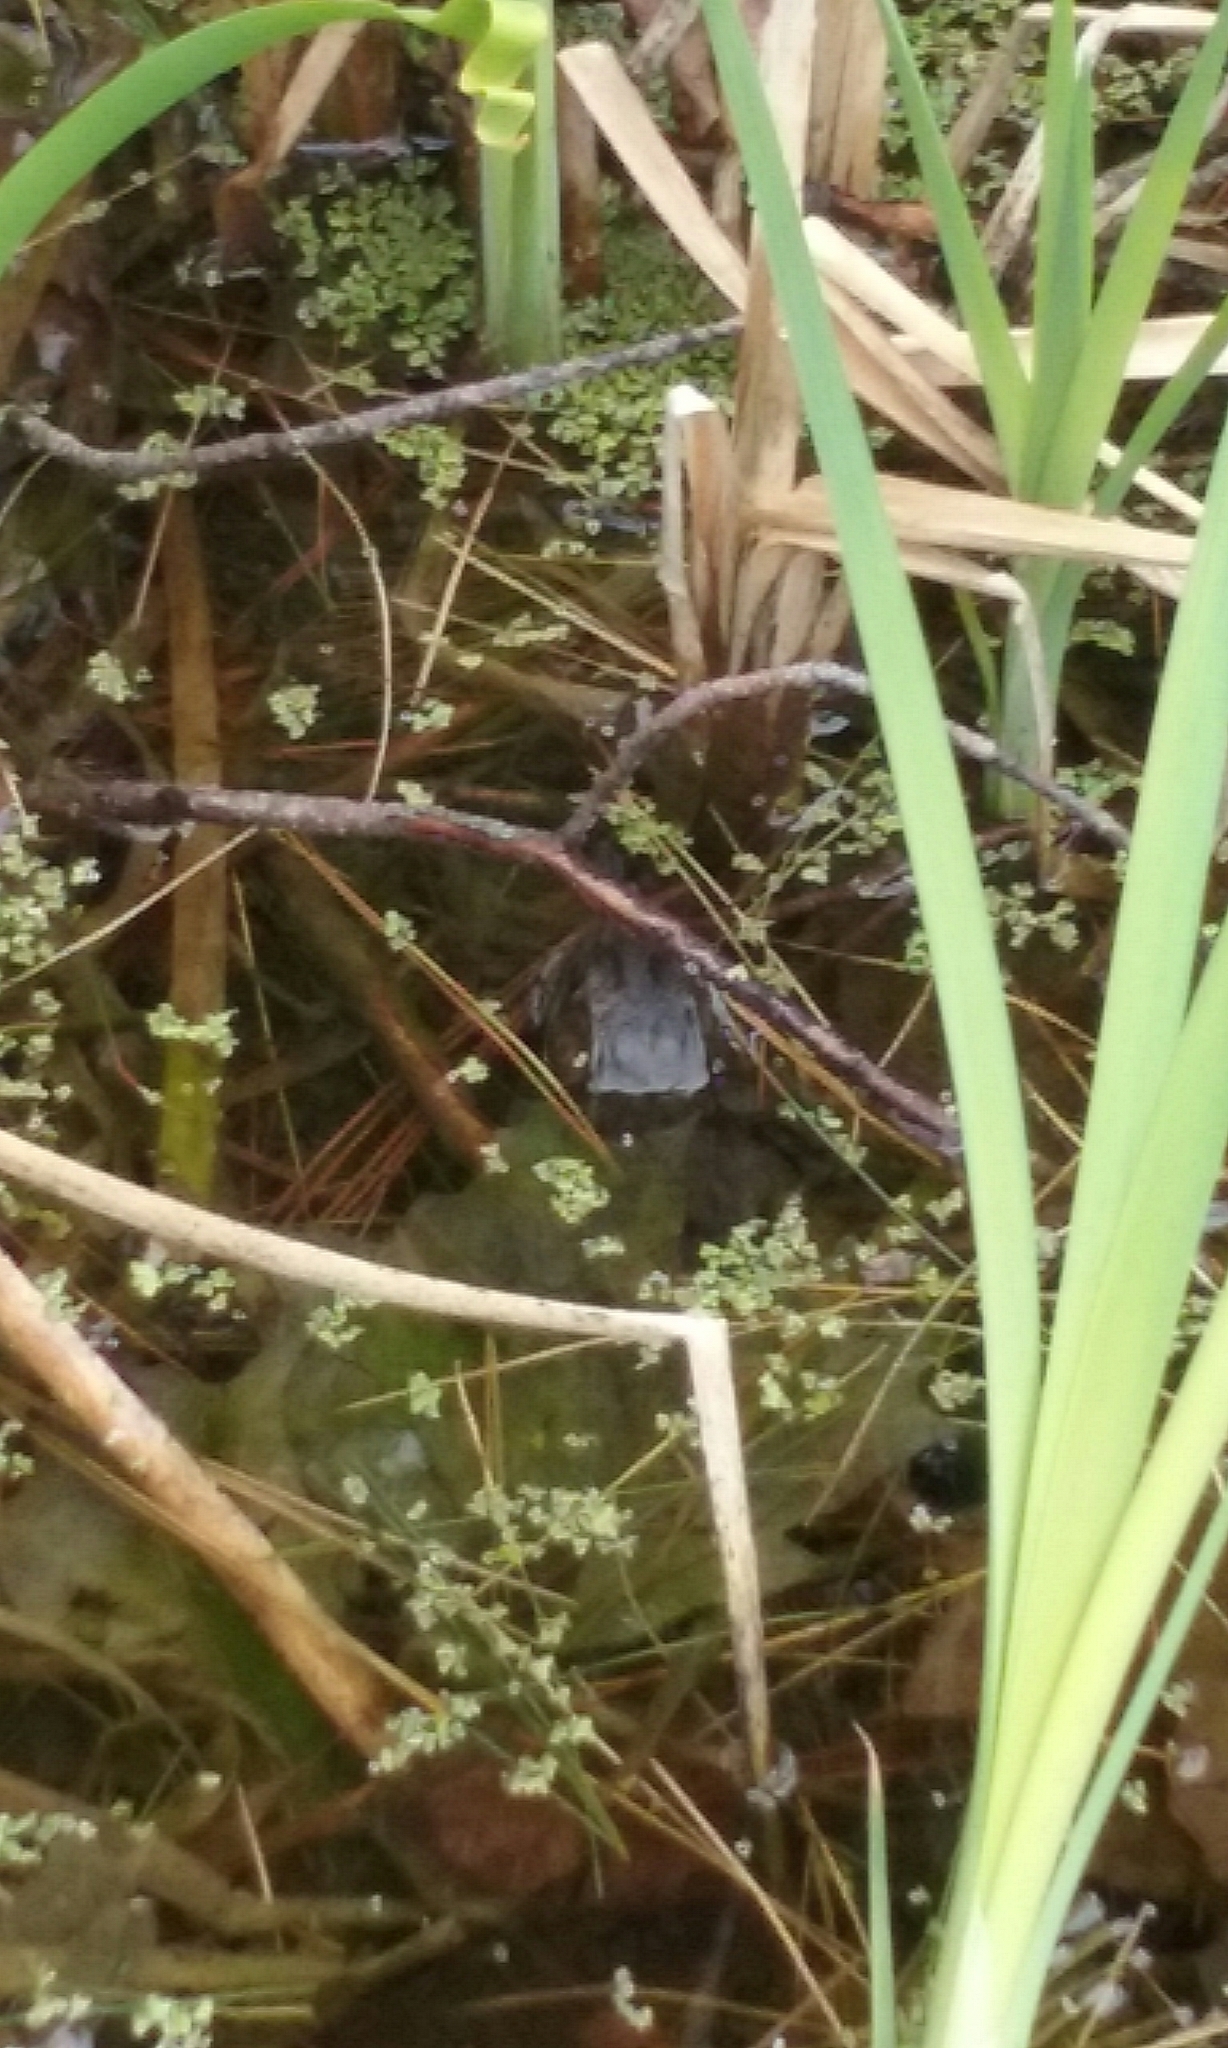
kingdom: Animalia
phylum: Chordata
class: Amphibia
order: Anura
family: Ranidae
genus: Lithobates
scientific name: Lithobates catesbeianus
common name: American bullfrog
